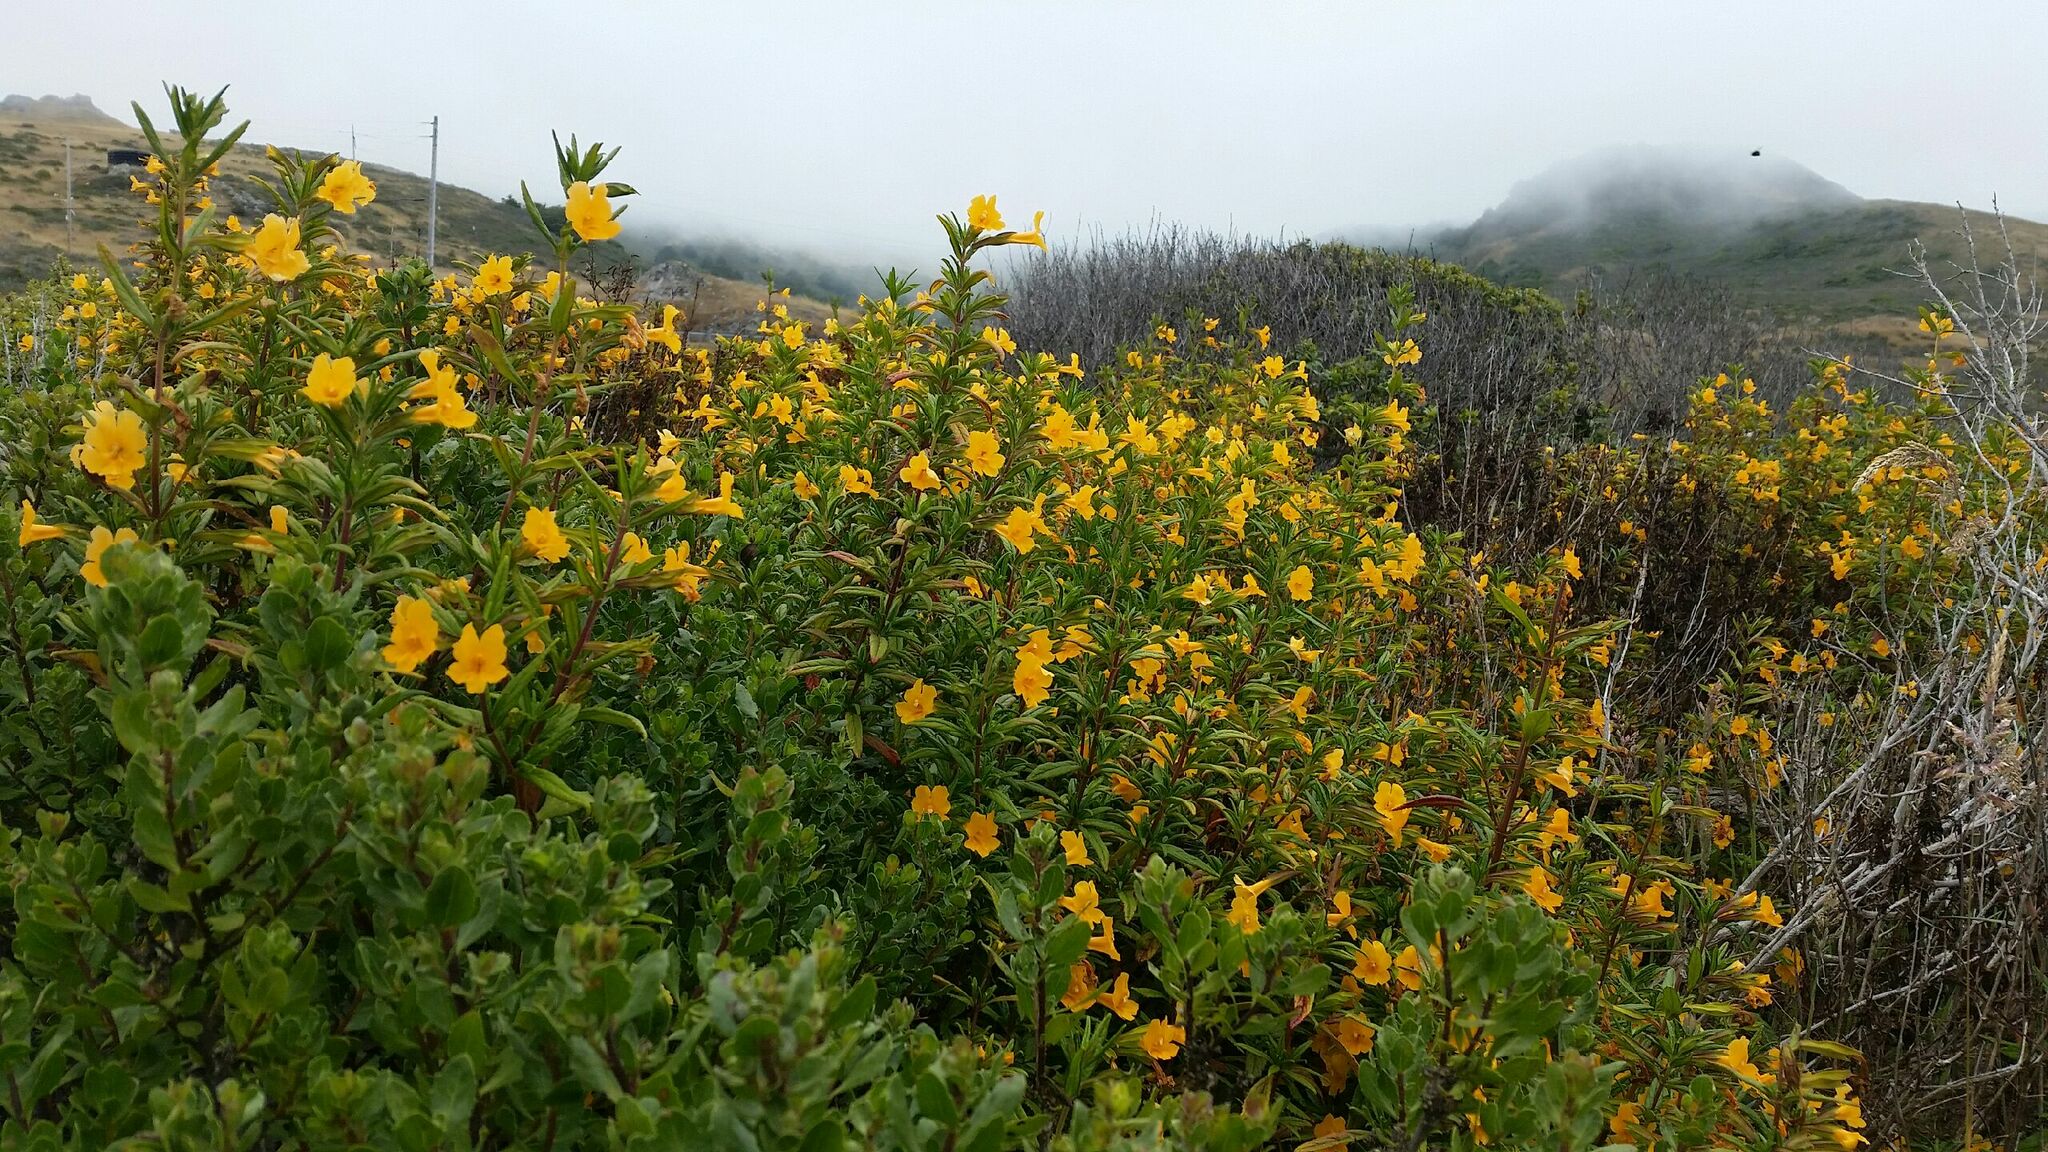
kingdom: Plantae
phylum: Tracheophyta
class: Magnoliopsida
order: Lamiales
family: Phrymaceae
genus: Diplacus
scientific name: Diplacus aurantiacus
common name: Bush monkey-flower
